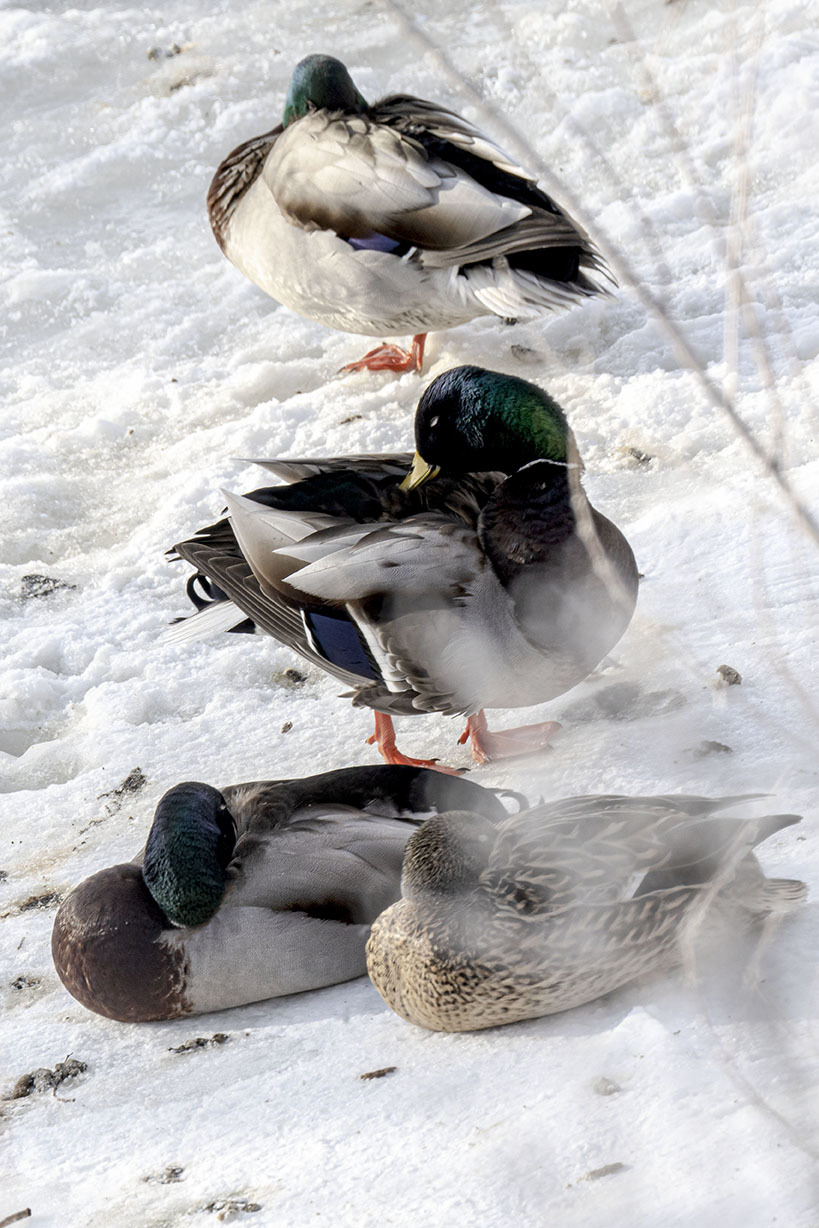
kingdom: Animalia
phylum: Chordata
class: Aves
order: Anseriformes
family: Anatidae
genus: Anas
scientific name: Anas platyrhynchos
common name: Mallard
